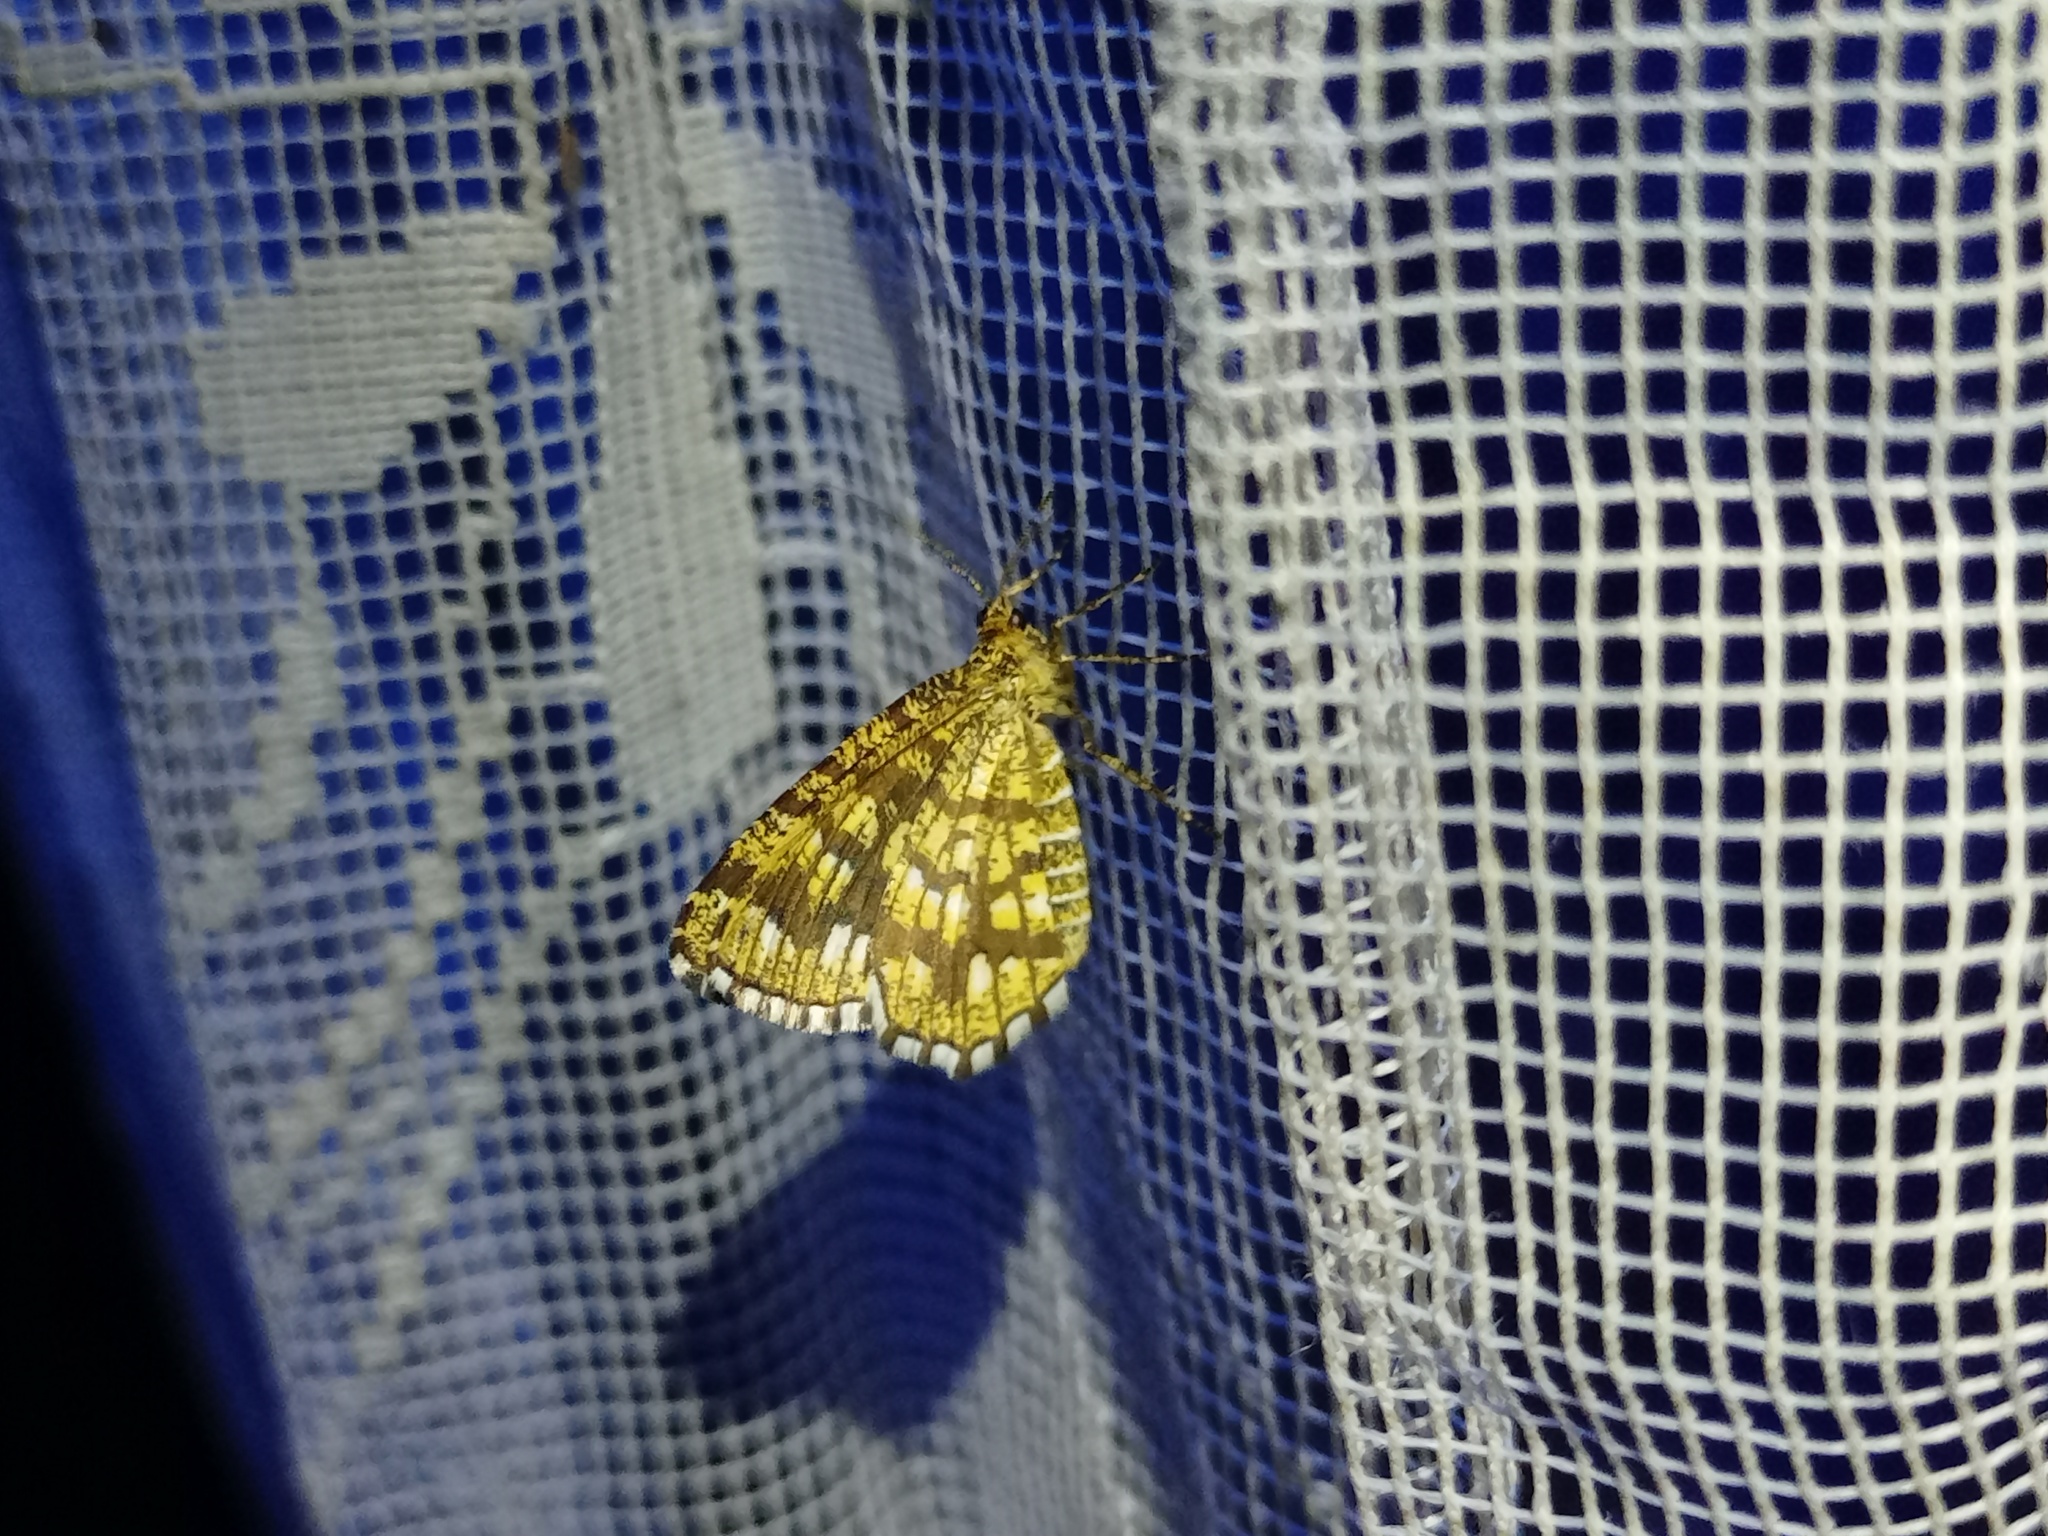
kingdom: Animalia
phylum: Arthropoda
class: Insecta
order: Lepidoptera
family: Geometridae
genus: Chiasmia
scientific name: Chiasmia clathrata
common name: Latticed heath
